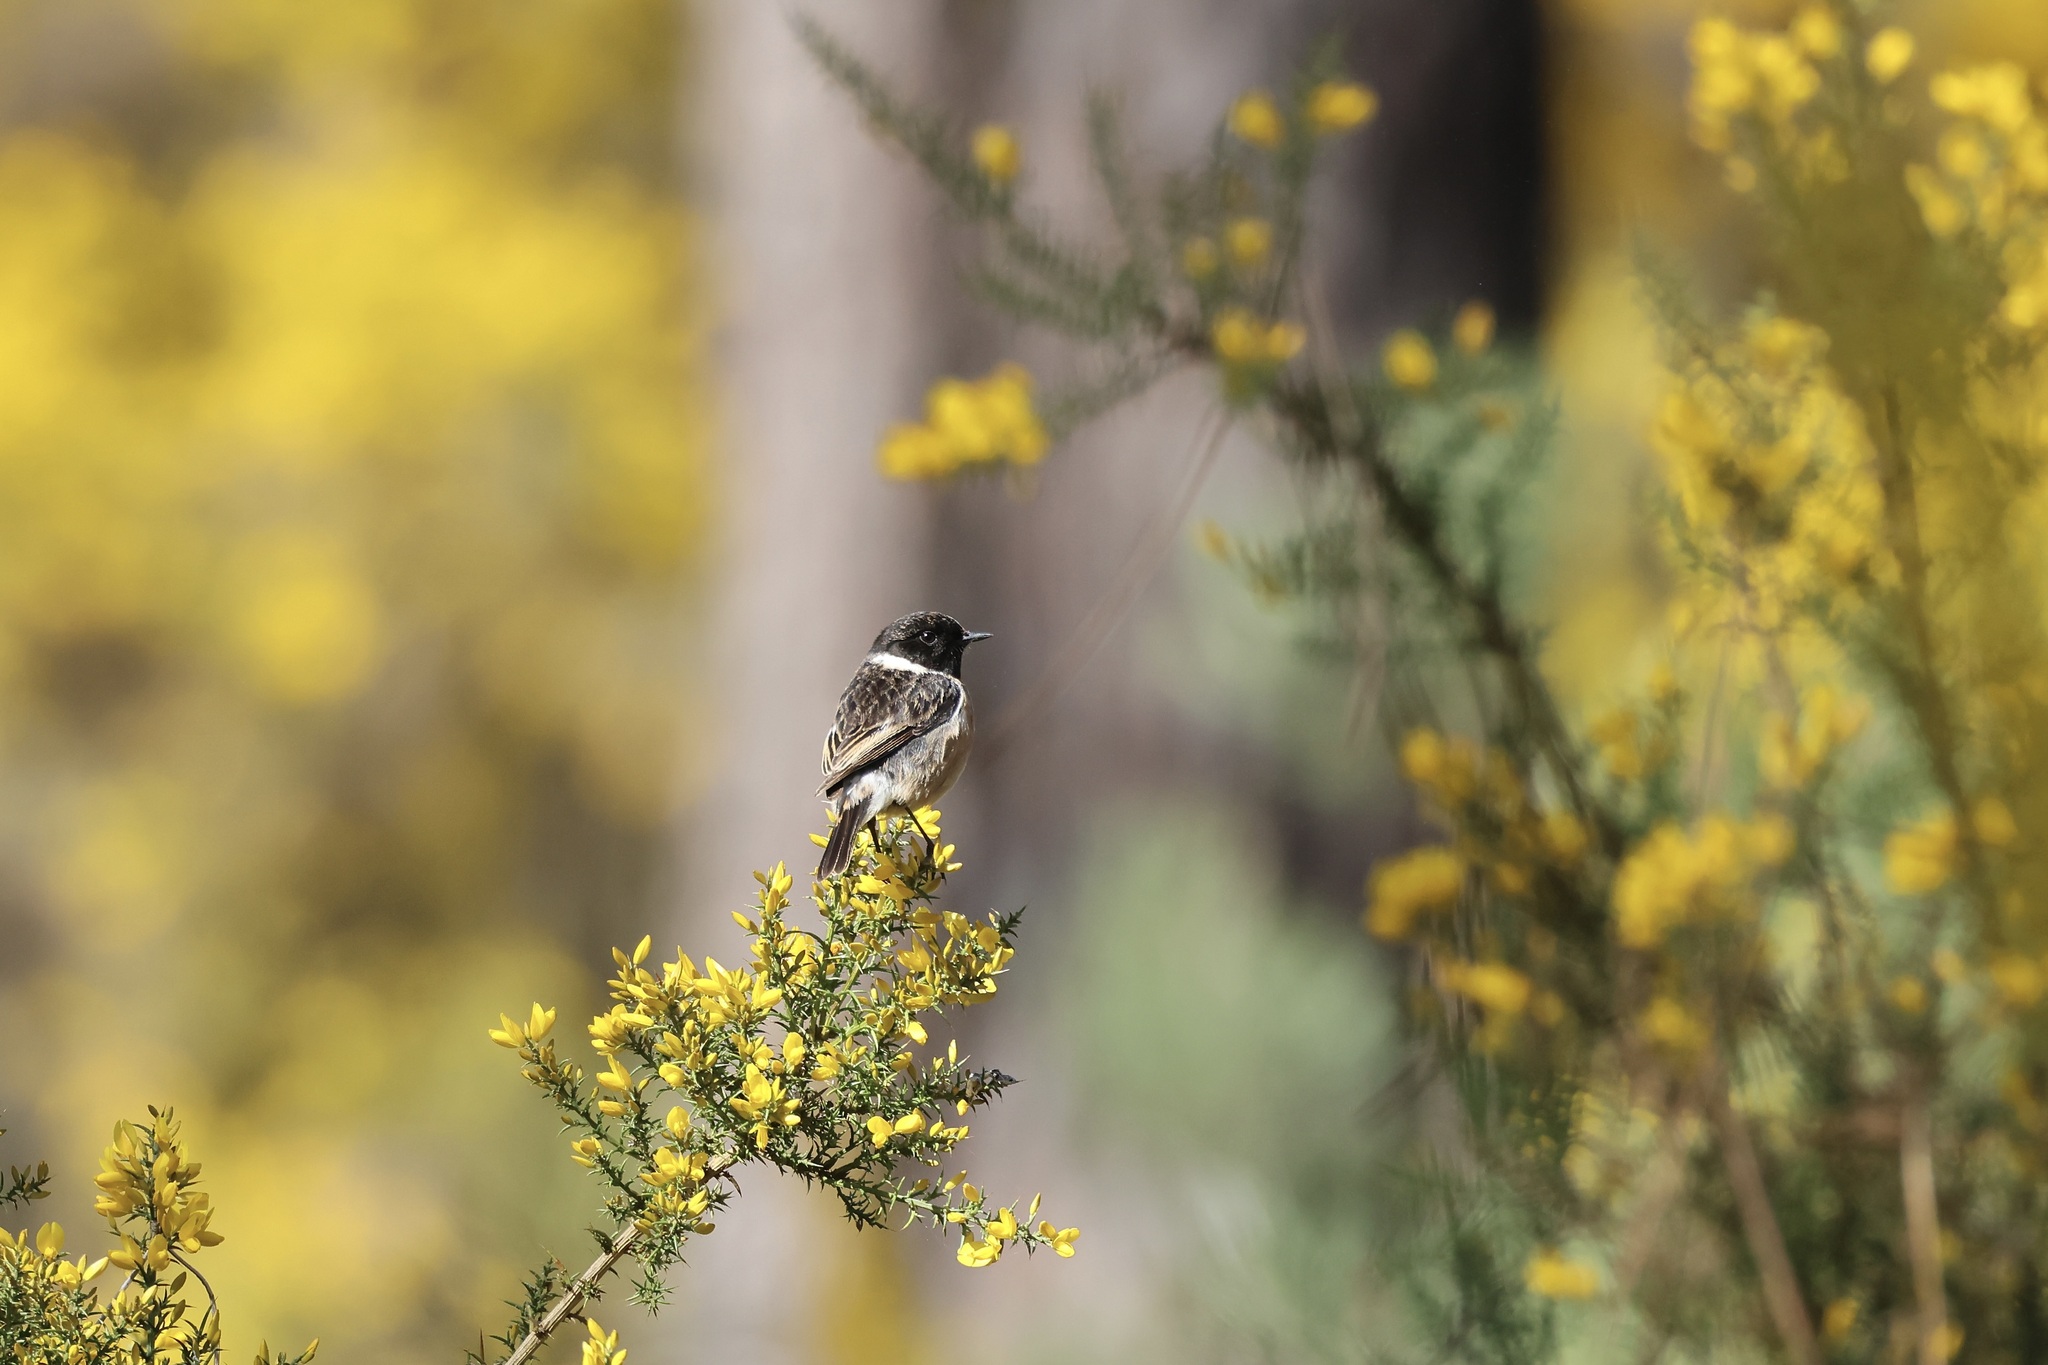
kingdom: Animalia
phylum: Chordata
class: Aves
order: Passeriformes
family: Muscicapidae
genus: Saxicola
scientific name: Saxicola rubicola
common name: European stonechat
